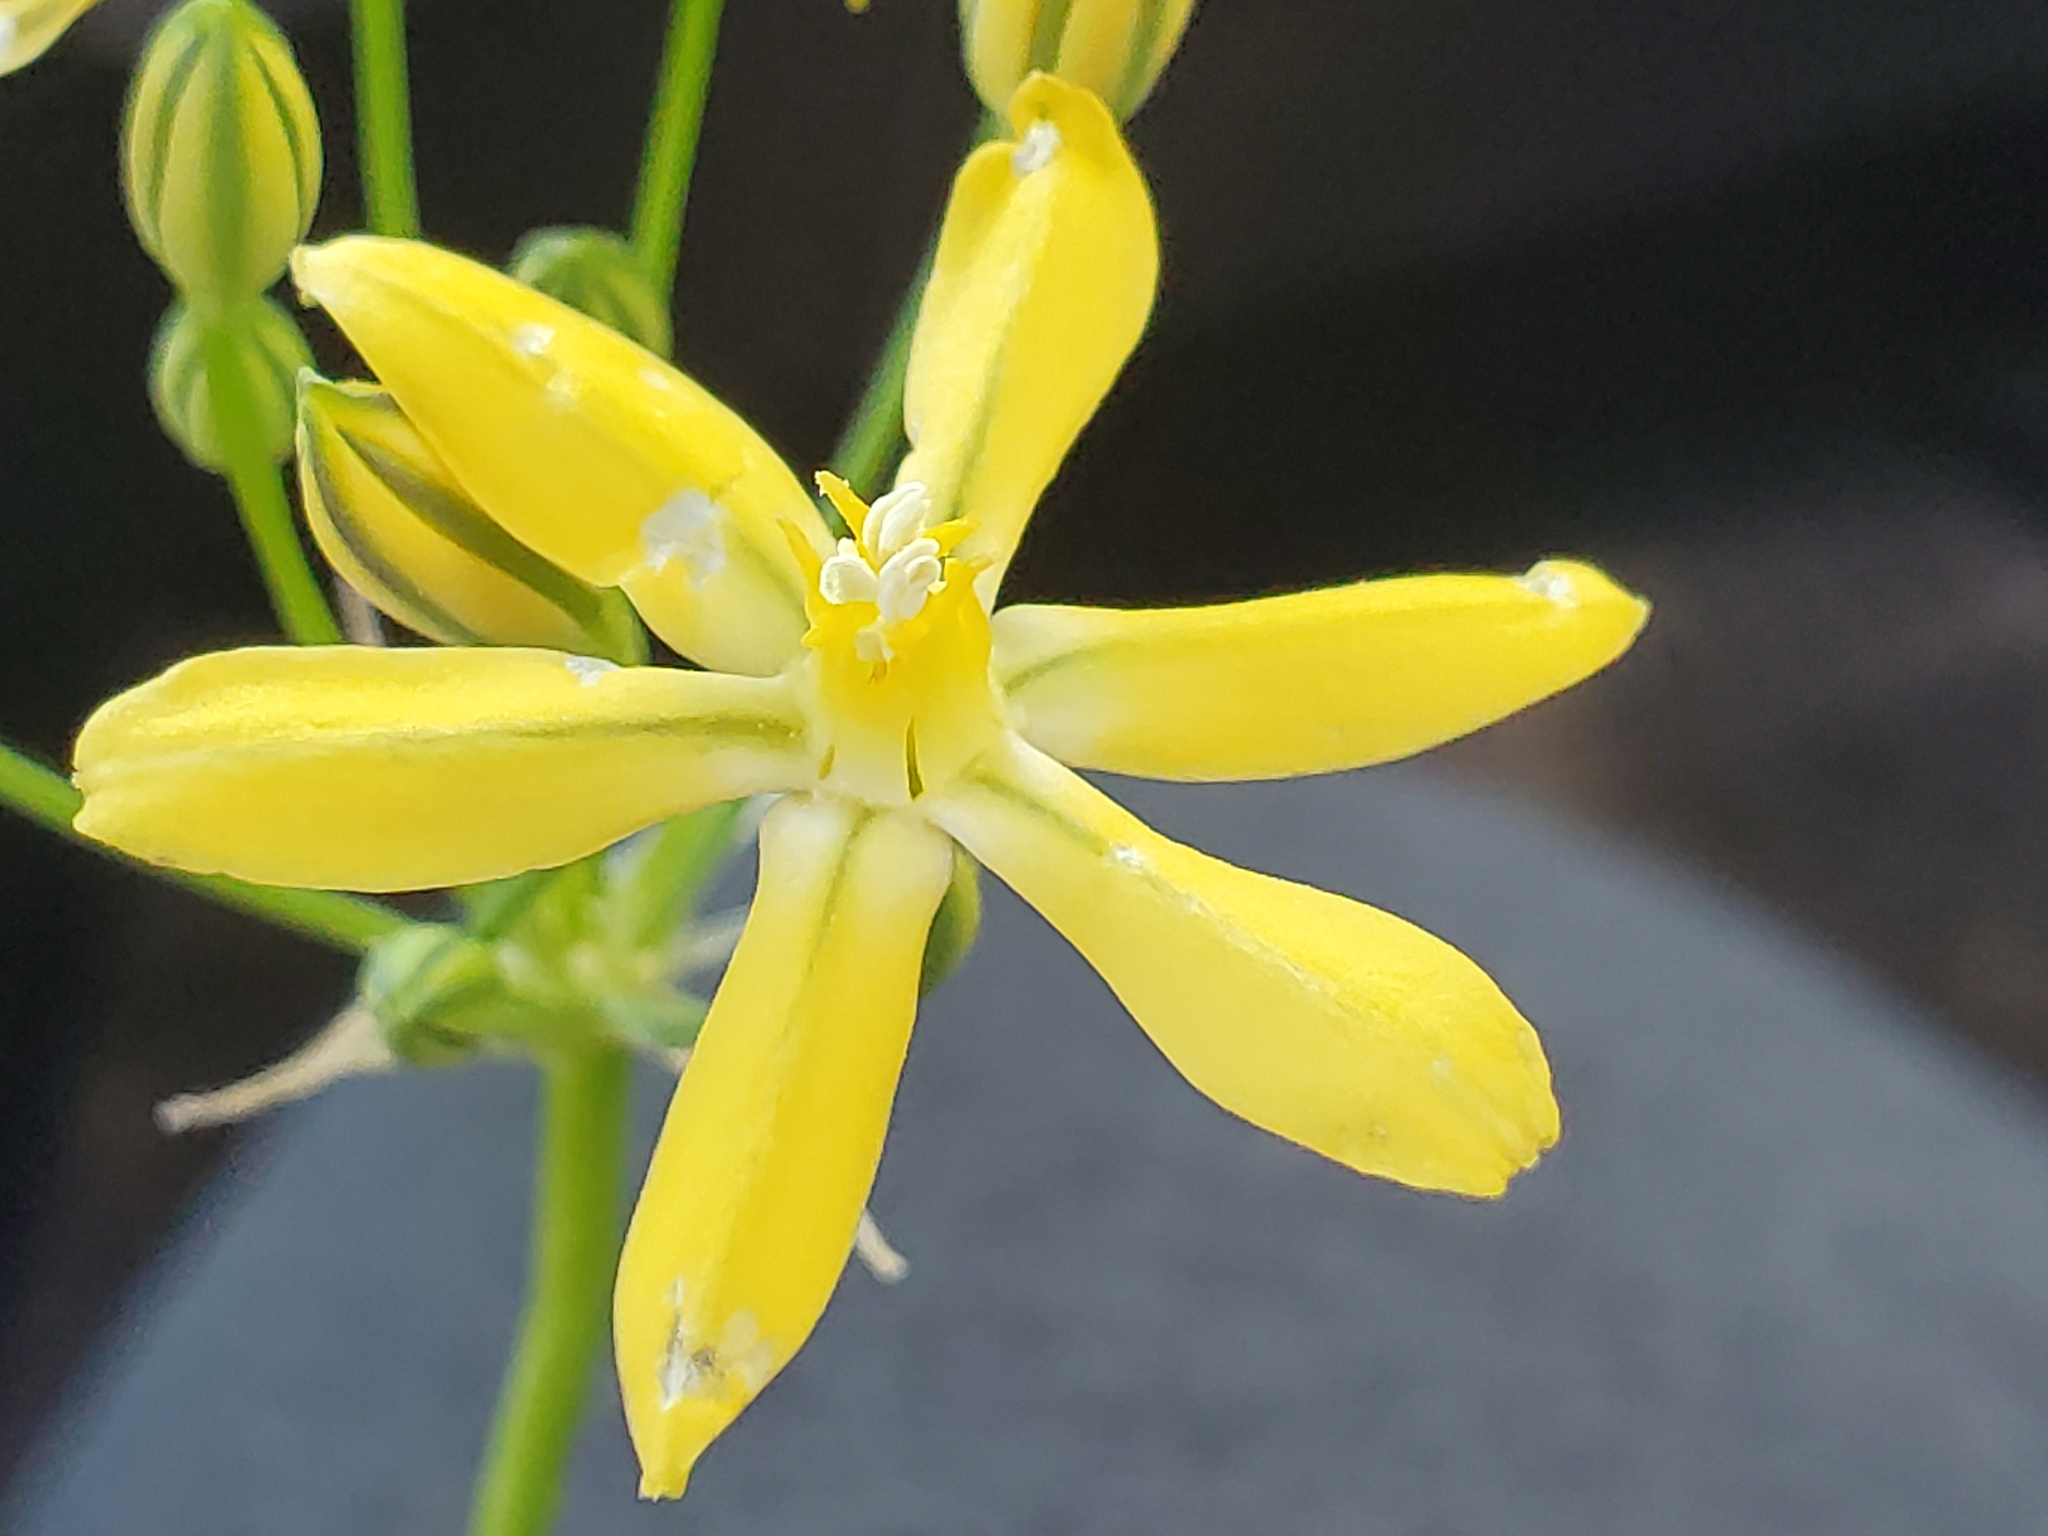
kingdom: Plantae
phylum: Tracheophyta
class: Liliopsida
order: Asparagales
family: Asparagaceae
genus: Triteleia
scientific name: Triteleia ixioides
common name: Yellow-brodiaea
